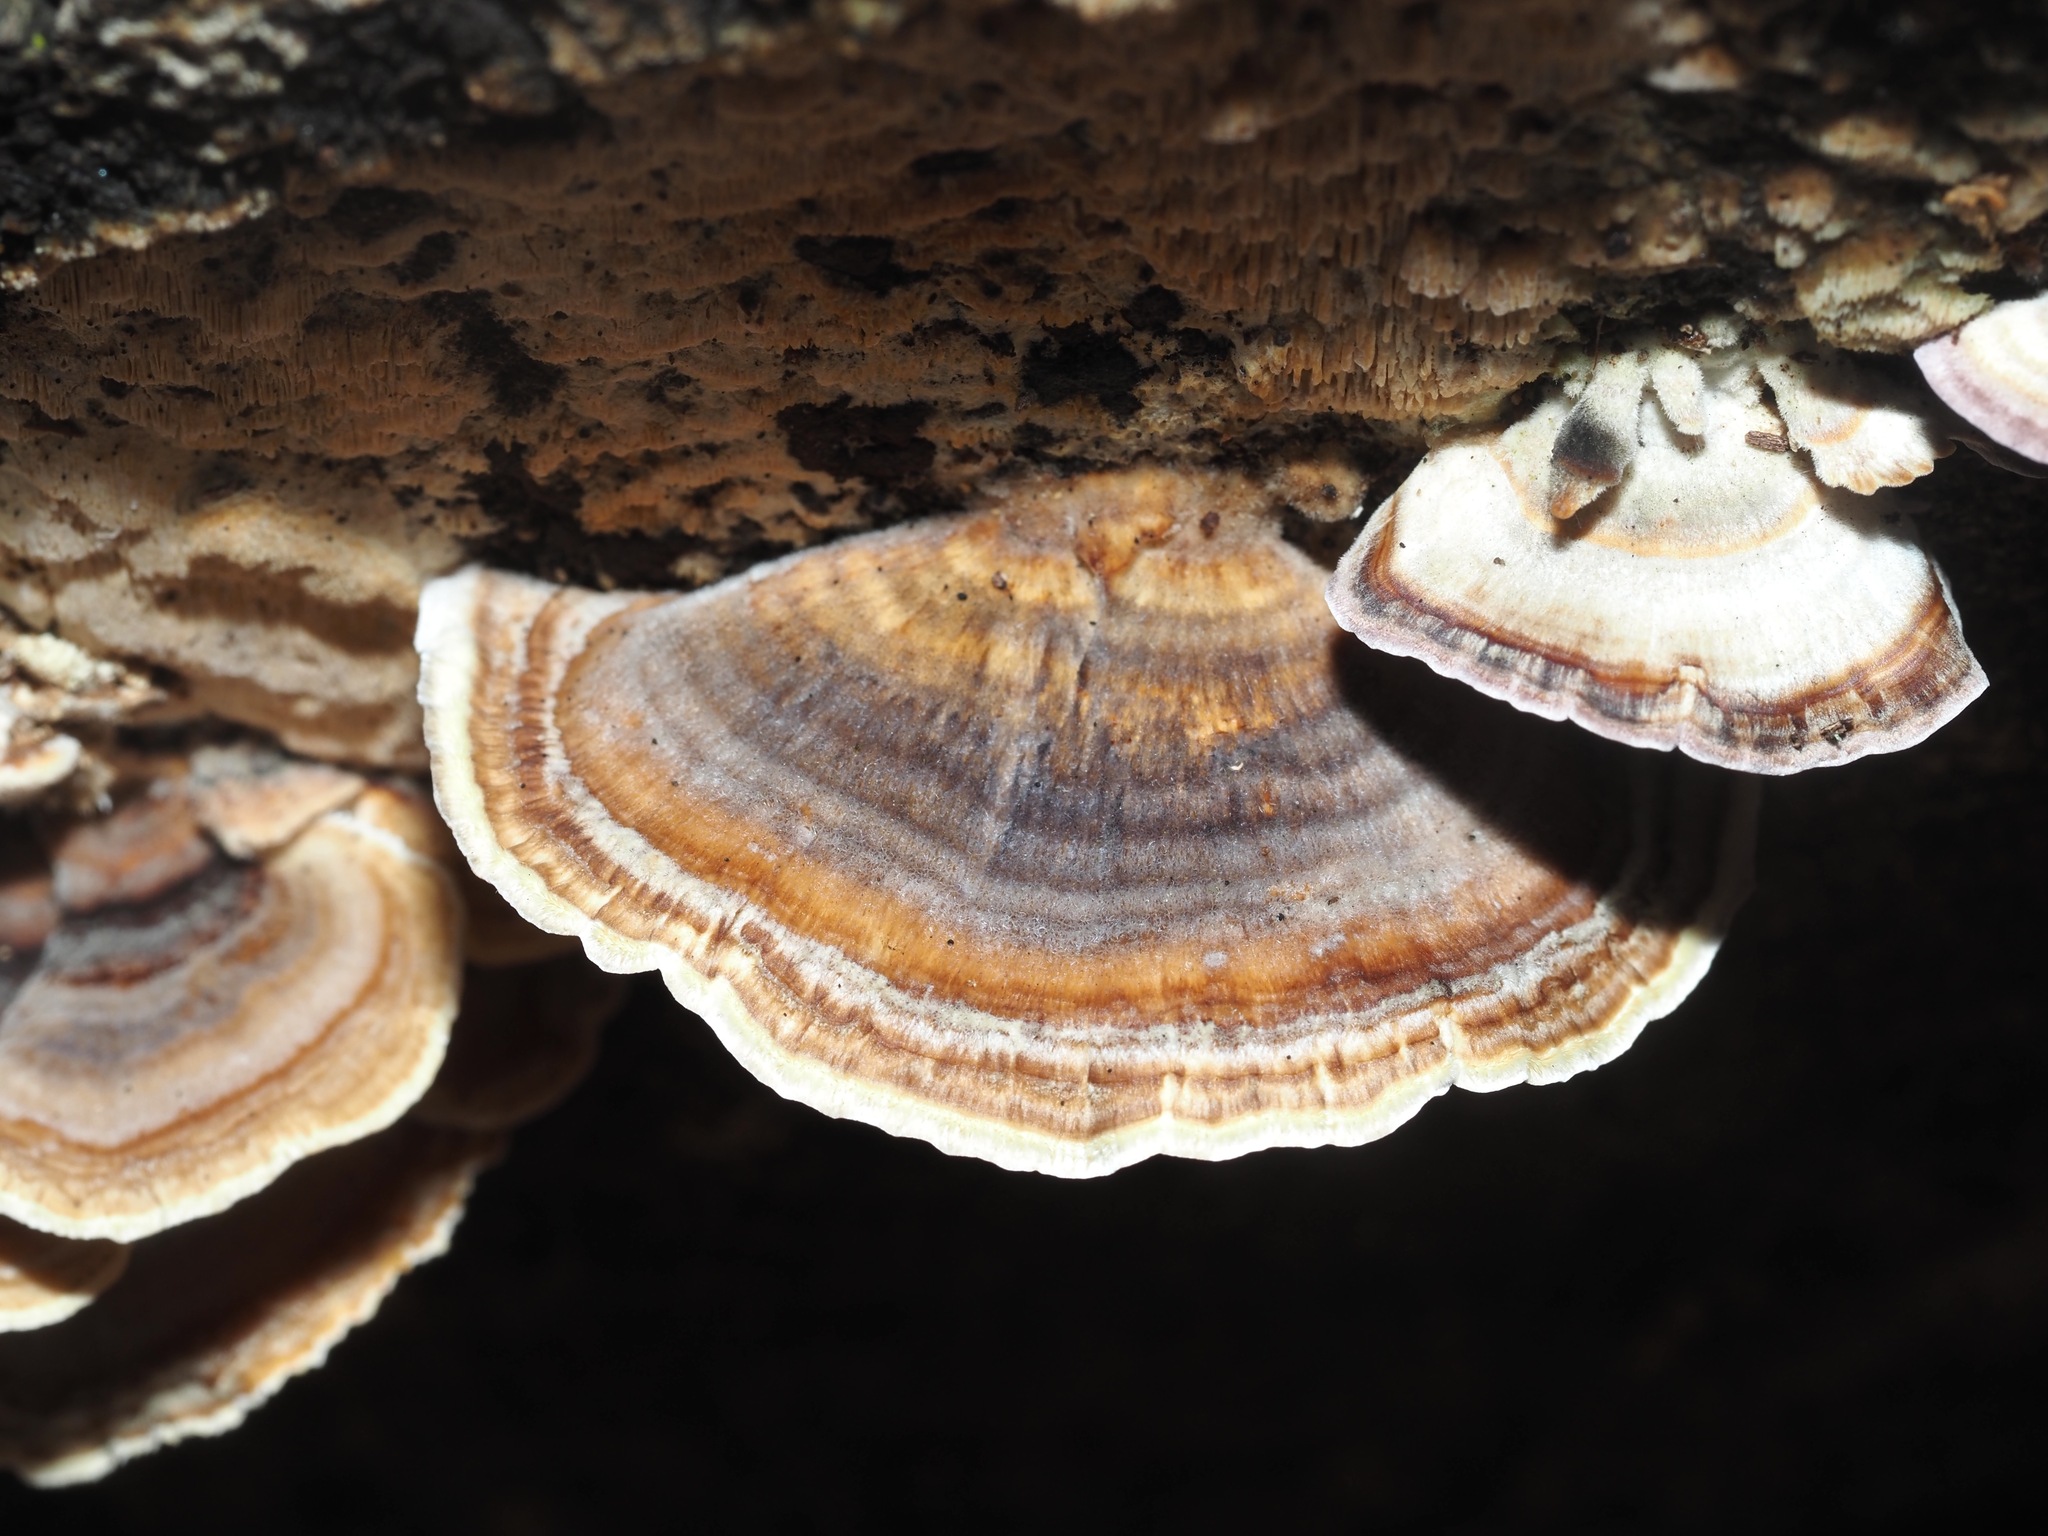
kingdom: Fungi
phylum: Basidiomycota
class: Agaricomycetes
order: Polyporales
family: Polyporaceae
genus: Trametes
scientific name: Trametes versicolor
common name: Turkeytail
